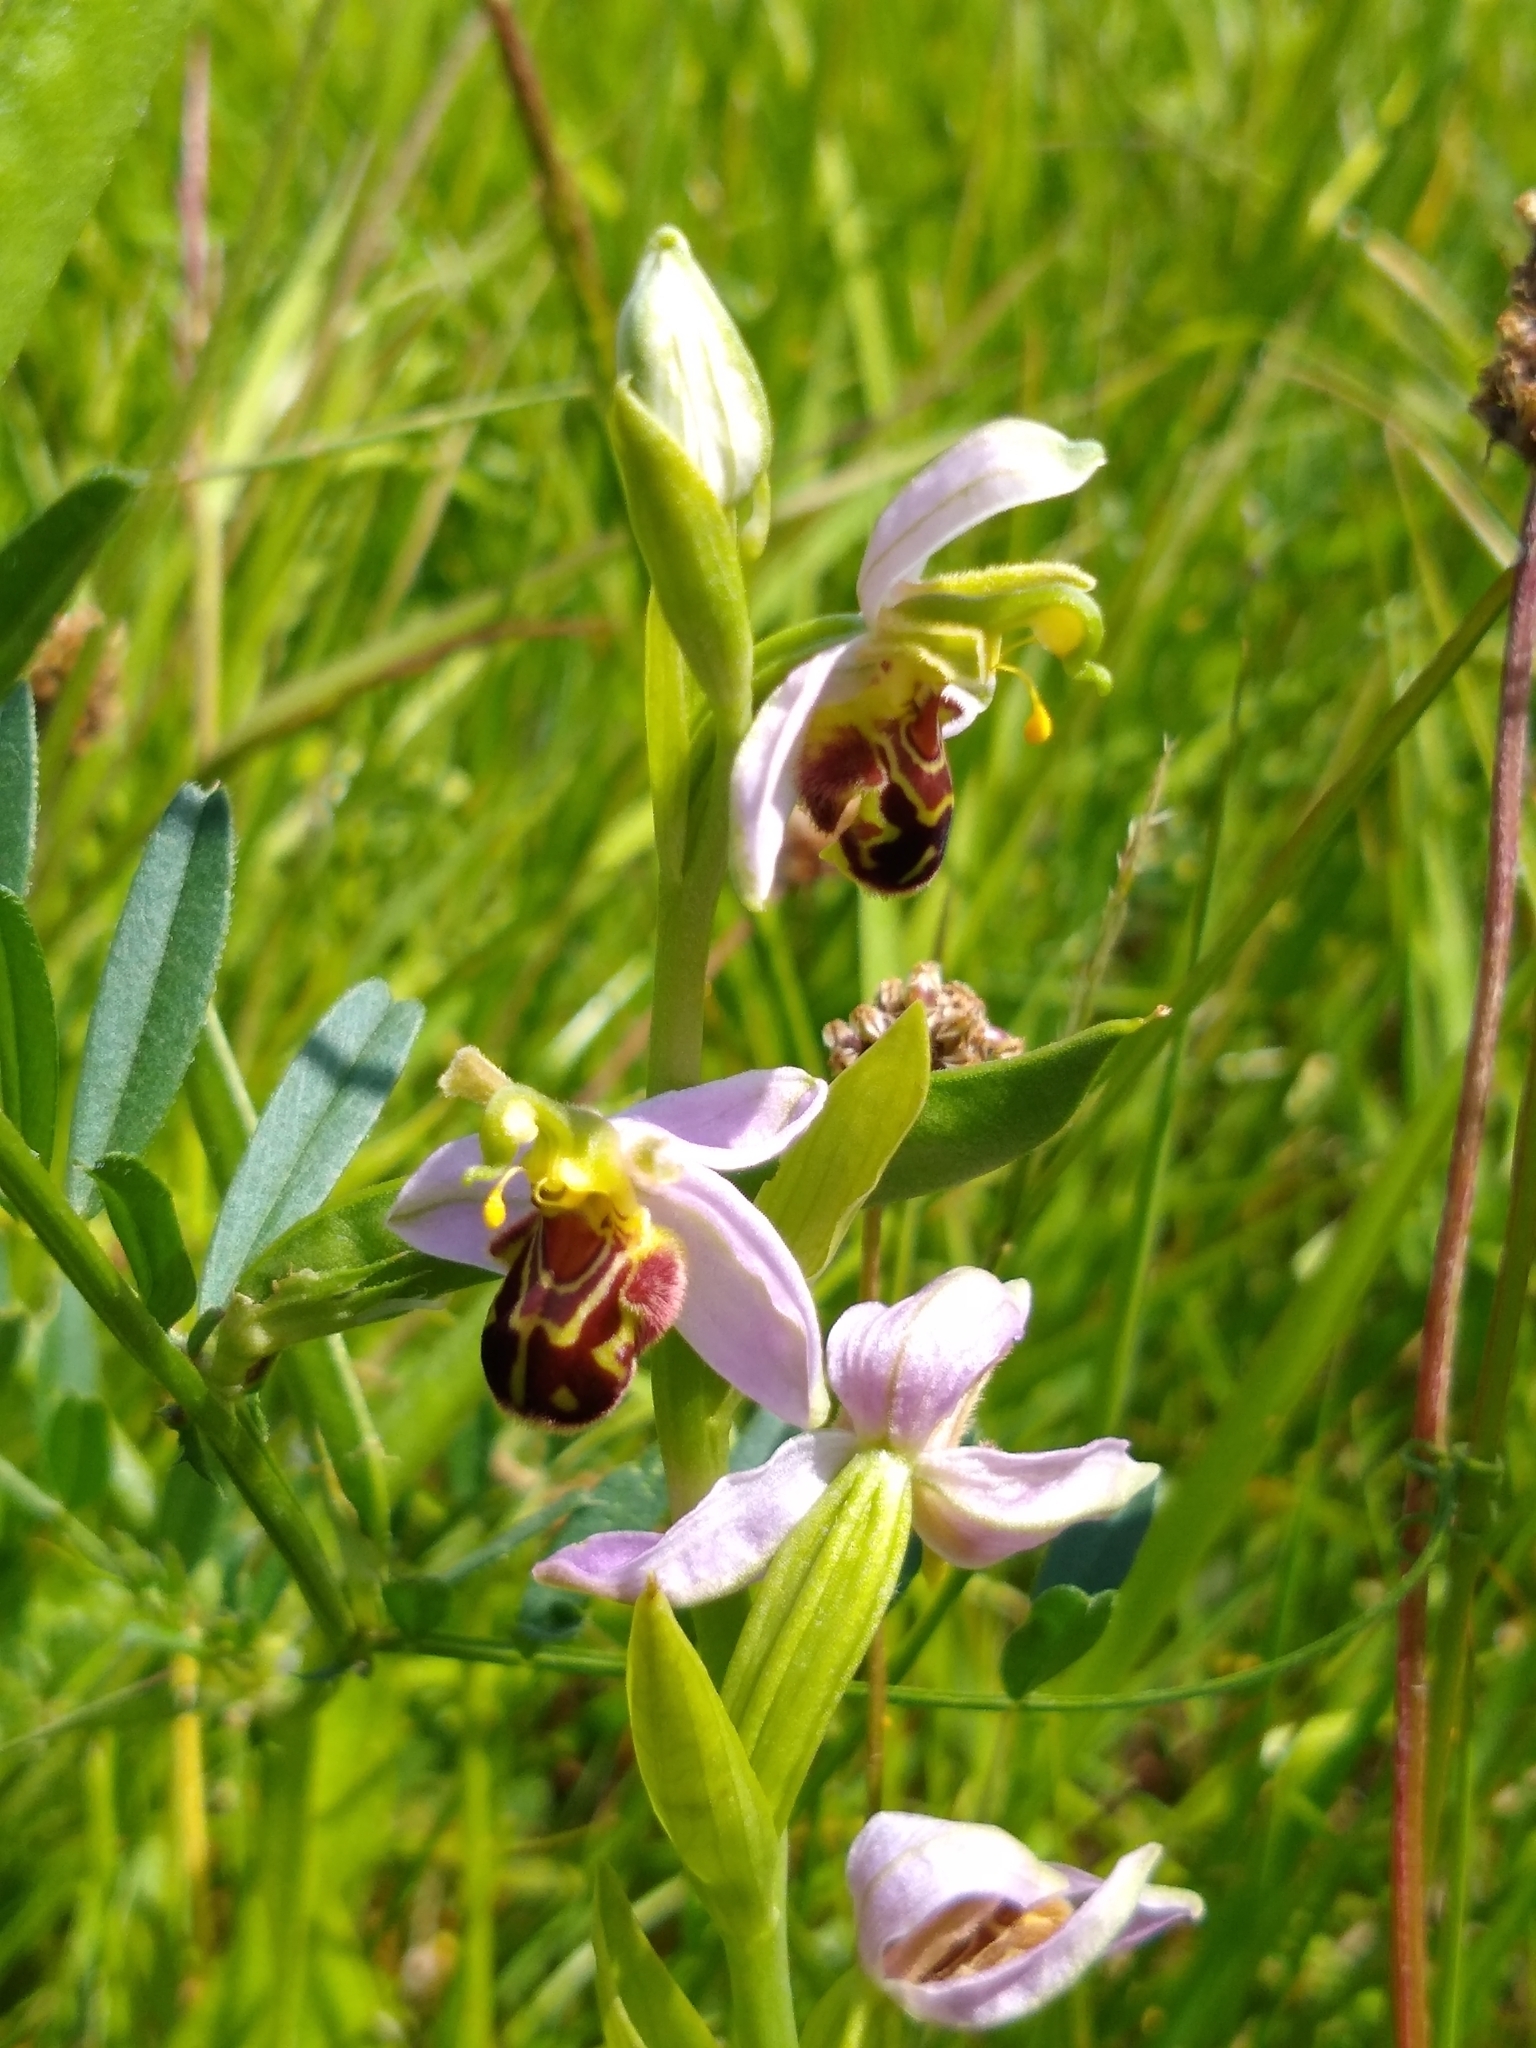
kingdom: Plantae
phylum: Tracheophyta
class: Liliopsida
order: Asparagales
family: Orchidaceae
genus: Ophrys
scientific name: Ophrys apifera
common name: Bee orchid
